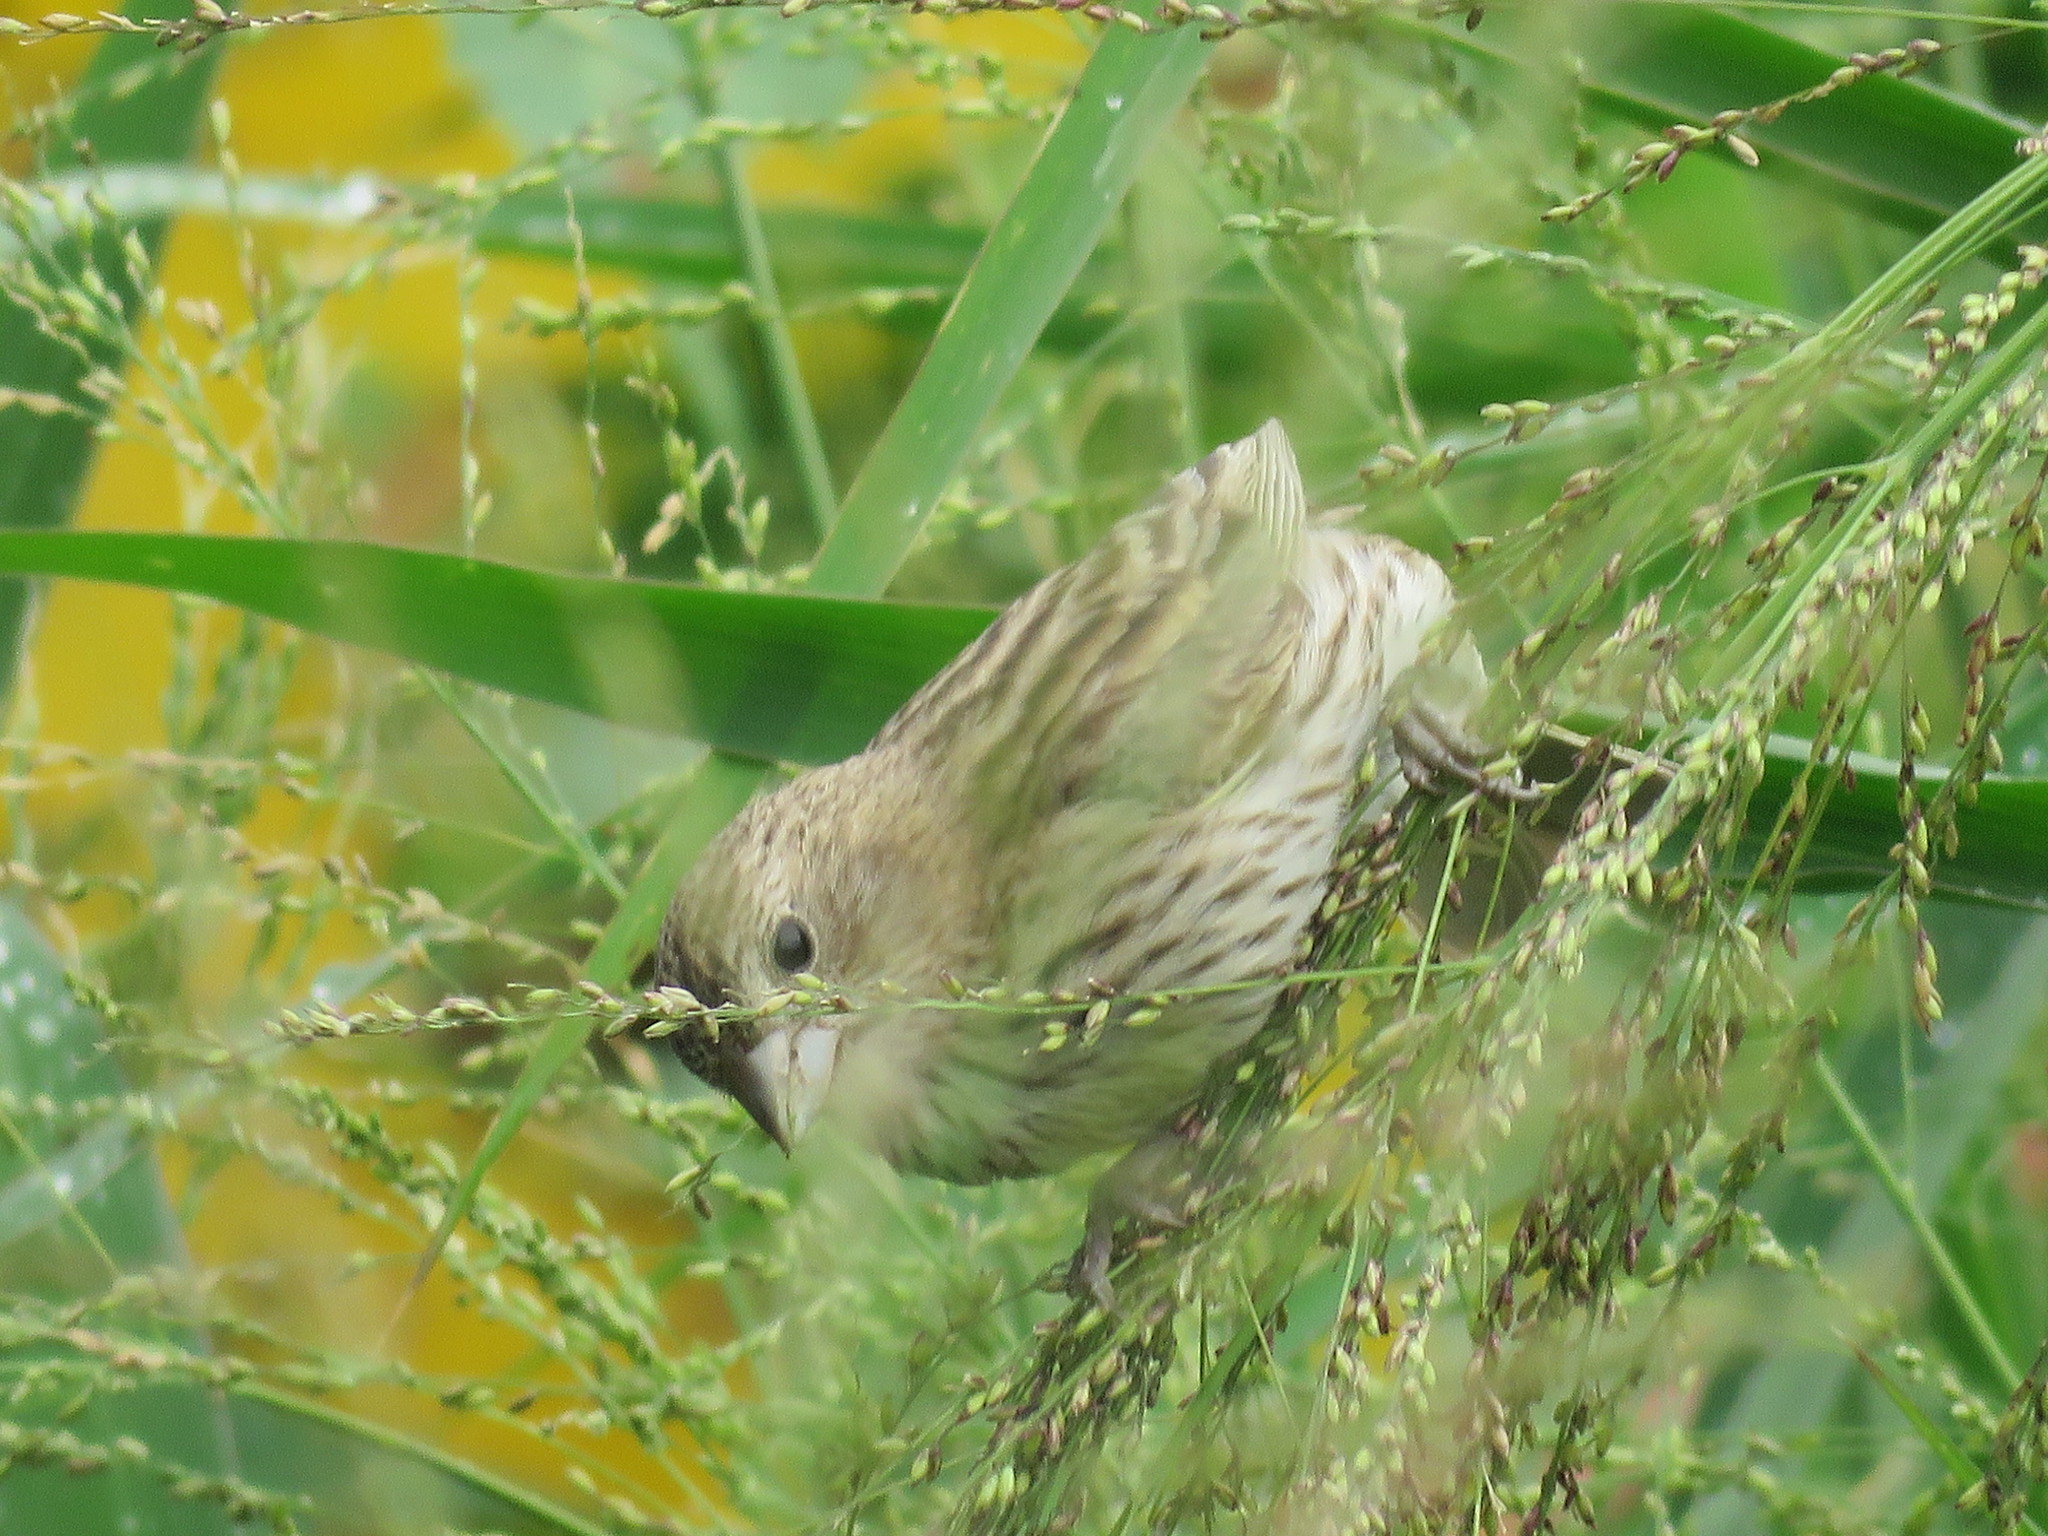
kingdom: Animalia
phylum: Chordata
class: Aves
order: Passeriformes
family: Thraupidae
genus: Sicalis
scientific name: Sicalis flaveola
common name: Saffron finch
